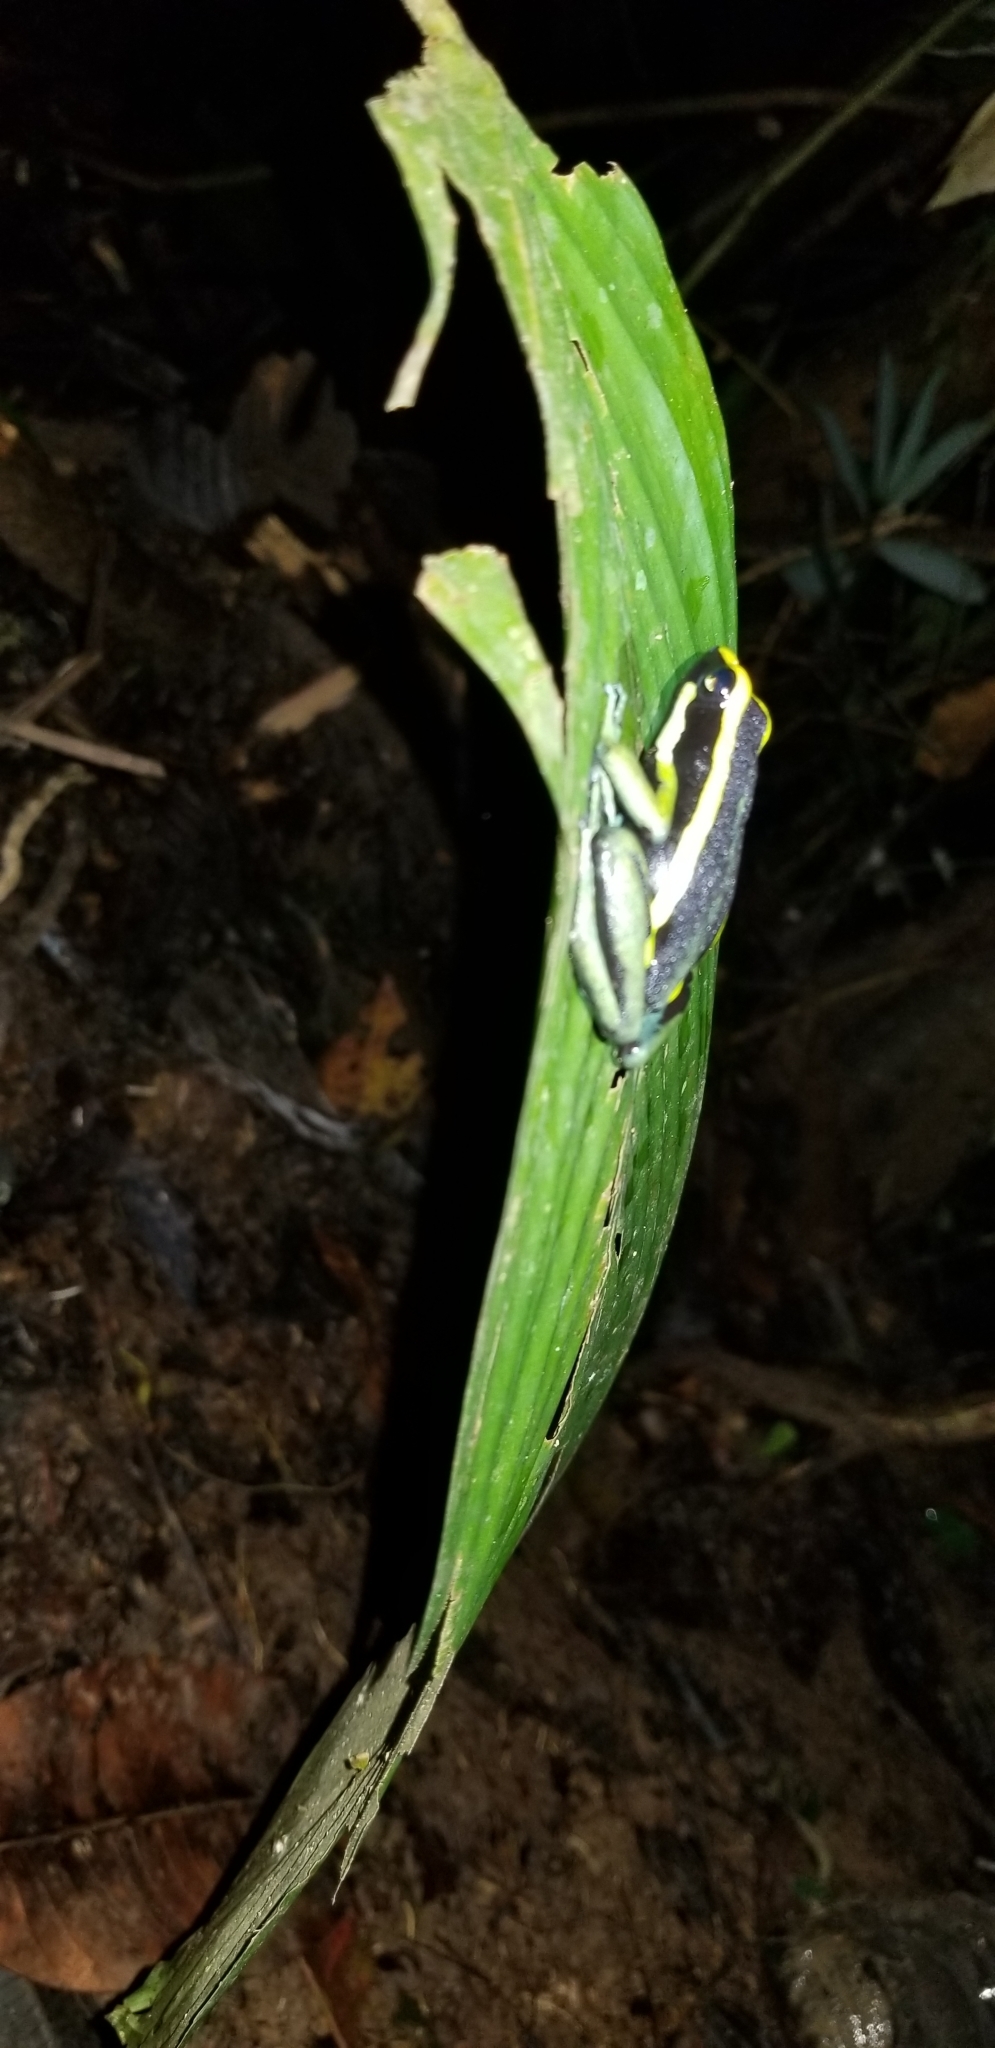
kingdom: Animalia
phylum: Chordata
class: Amphibia
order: Anura
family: Dendrobatidae
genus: Ameerega
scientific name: Ameerega trivittata
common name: Three-striped arrow-poison frog
